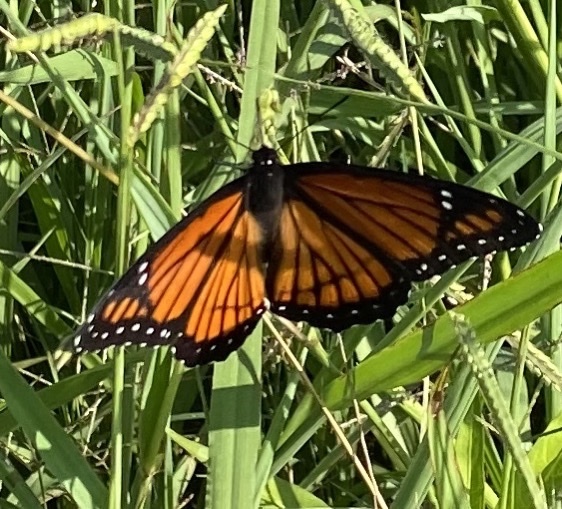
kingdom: Animalia
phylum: Arthropoda
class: Insecta
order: Lepidoptera
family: Nymphalidae
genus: Limenitis
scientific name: Limenitis archippus
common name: Viceroy
